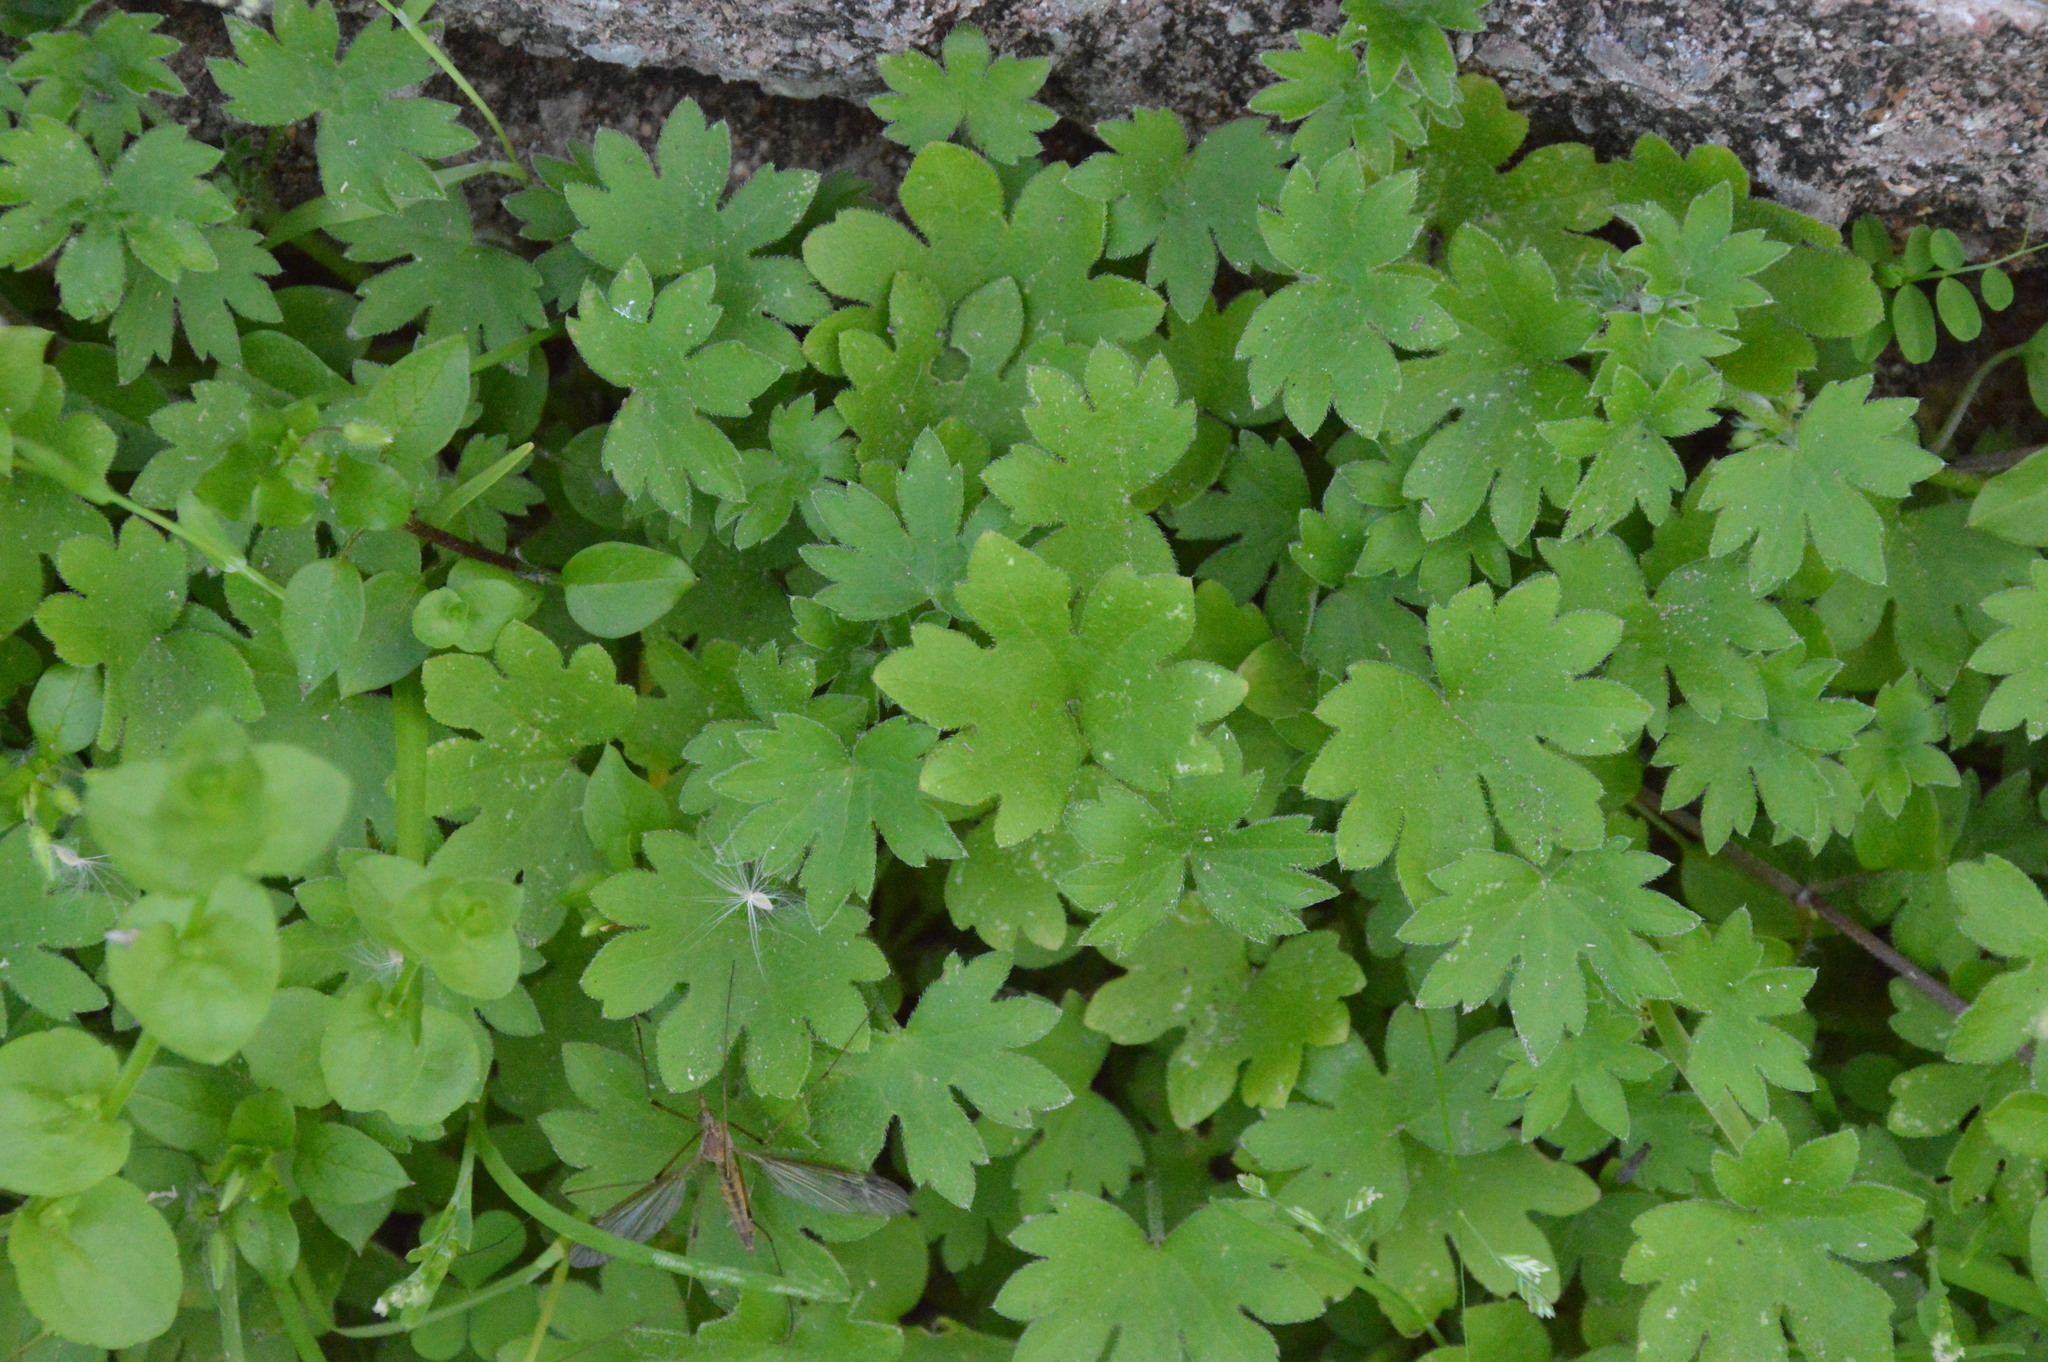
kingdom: Plantae
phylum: Tracheophyta
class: Magnoliopsida
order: Apiales
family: Apiaceae
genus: Bowlesia
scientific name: Bowlesia incana
